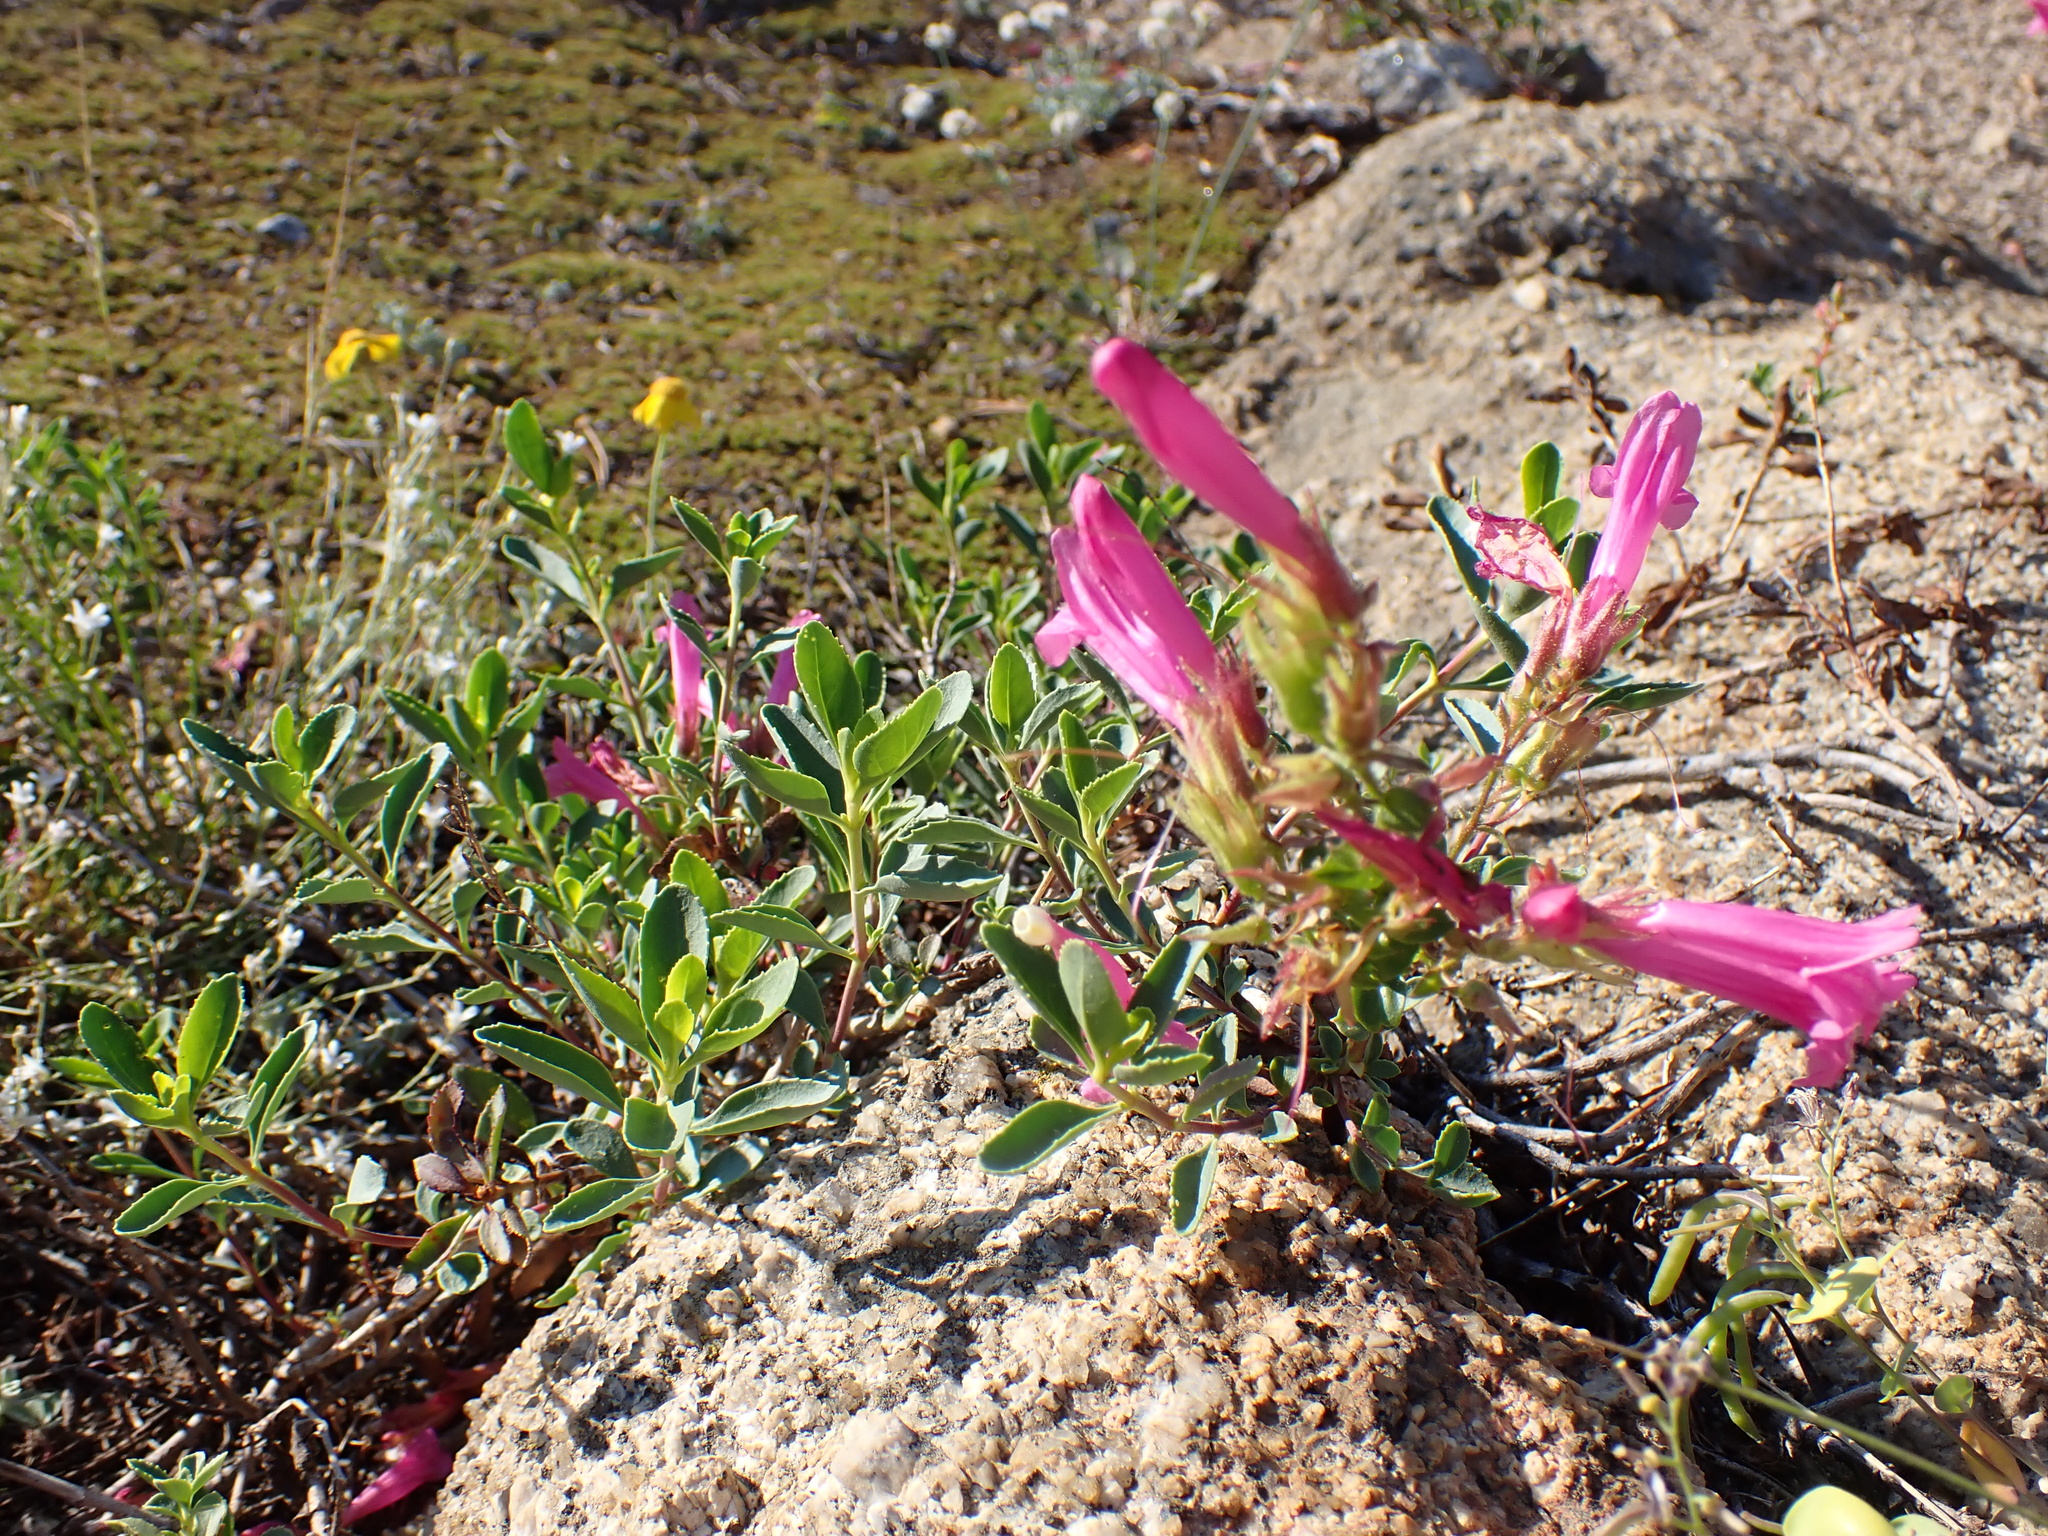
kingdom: Plantae
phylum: Tracheophyta
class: Magnoliopsida
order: Lamiales
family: Plantaginaceae
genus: Penstemon
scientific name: Penstemon newberryi
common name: Mountain-pride
